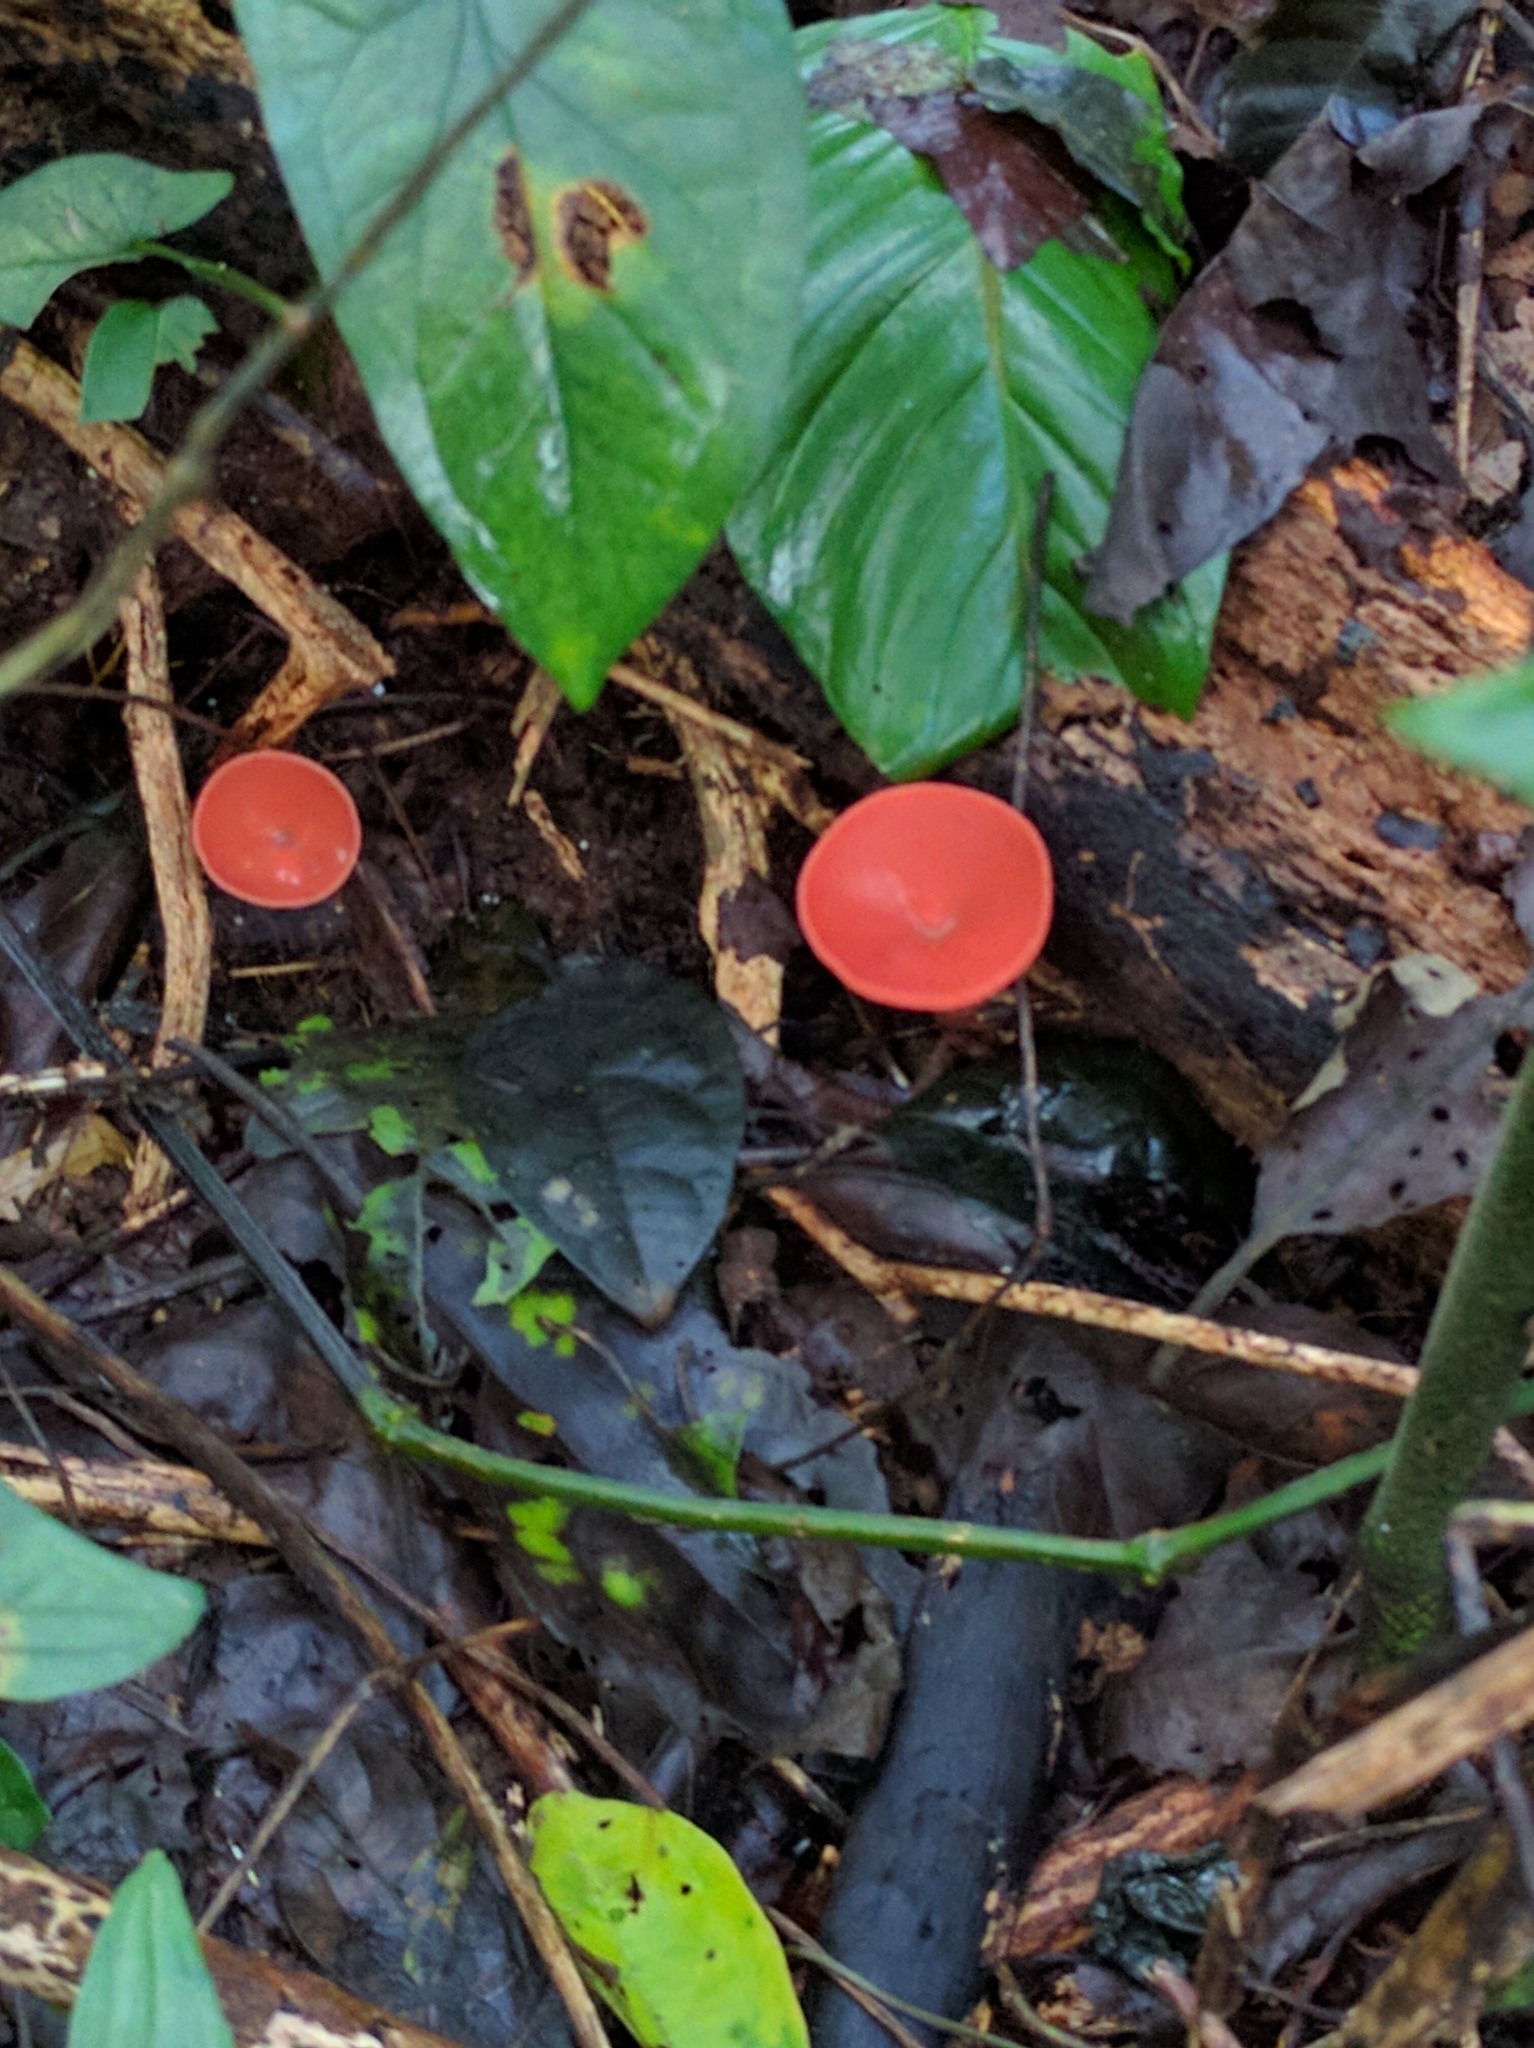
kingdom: Fungi
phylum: Ascomycota
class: Pezizomycetes
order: Pezizales
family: Sarcoscyphaceae
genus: Cookeina
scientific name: Cookeina speciosa
